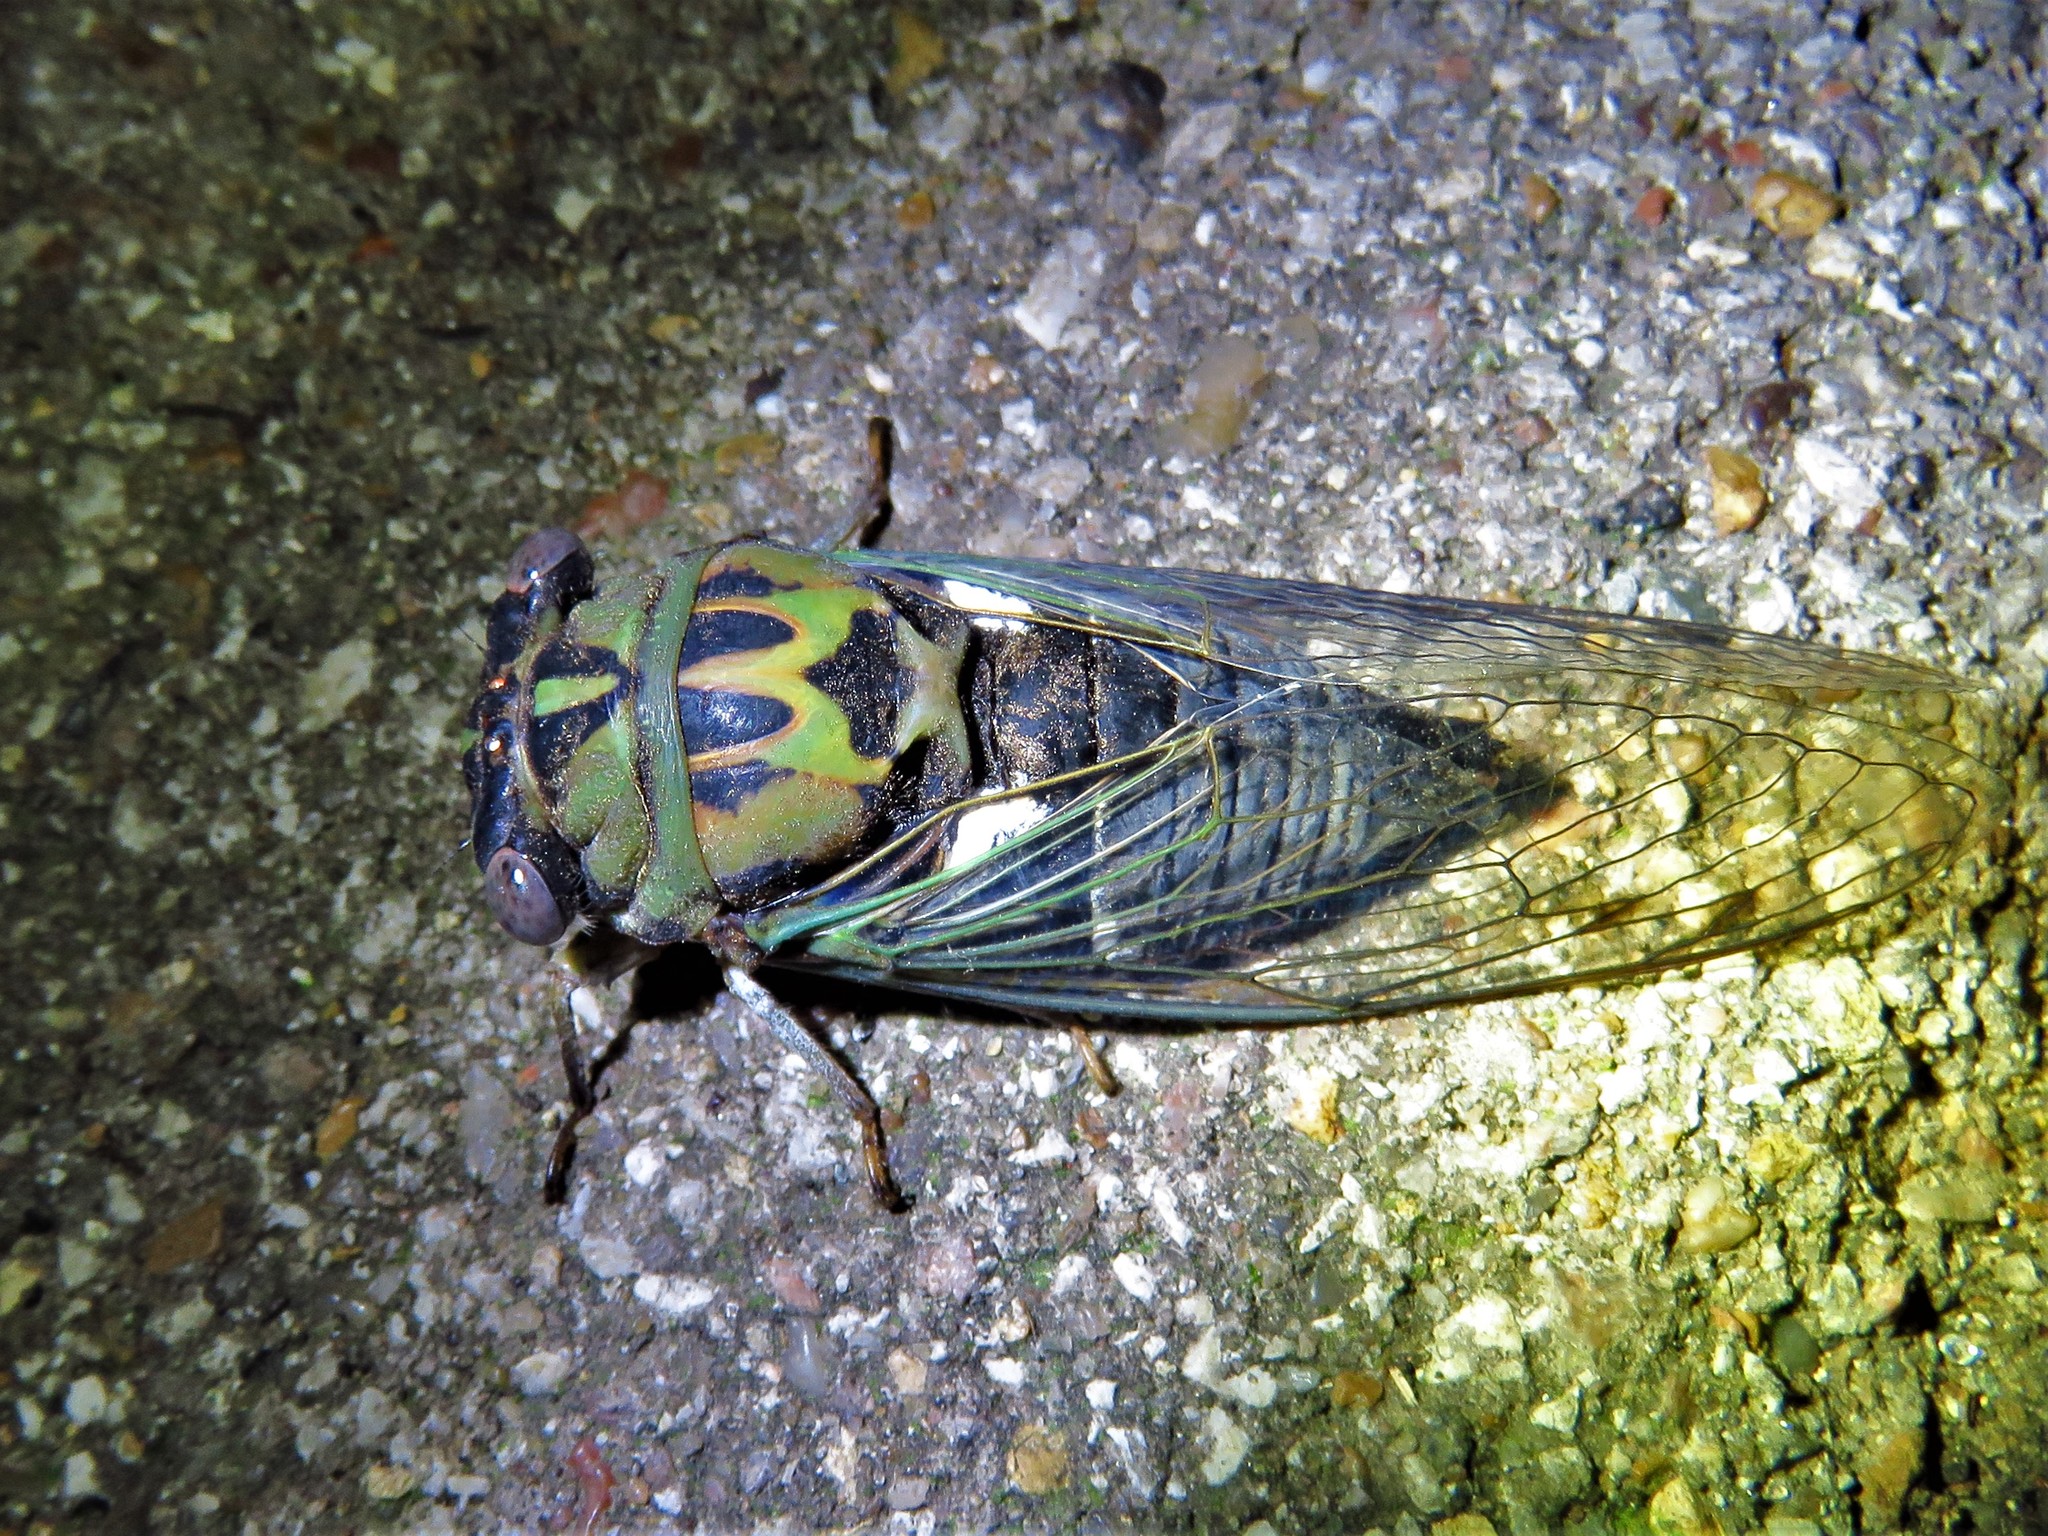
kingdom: Animalia
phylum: Arthropoda
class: Insecta
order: Hemiptera
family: Cicadidae
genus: Neotibicen
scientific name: Neotibicen pruinosus
